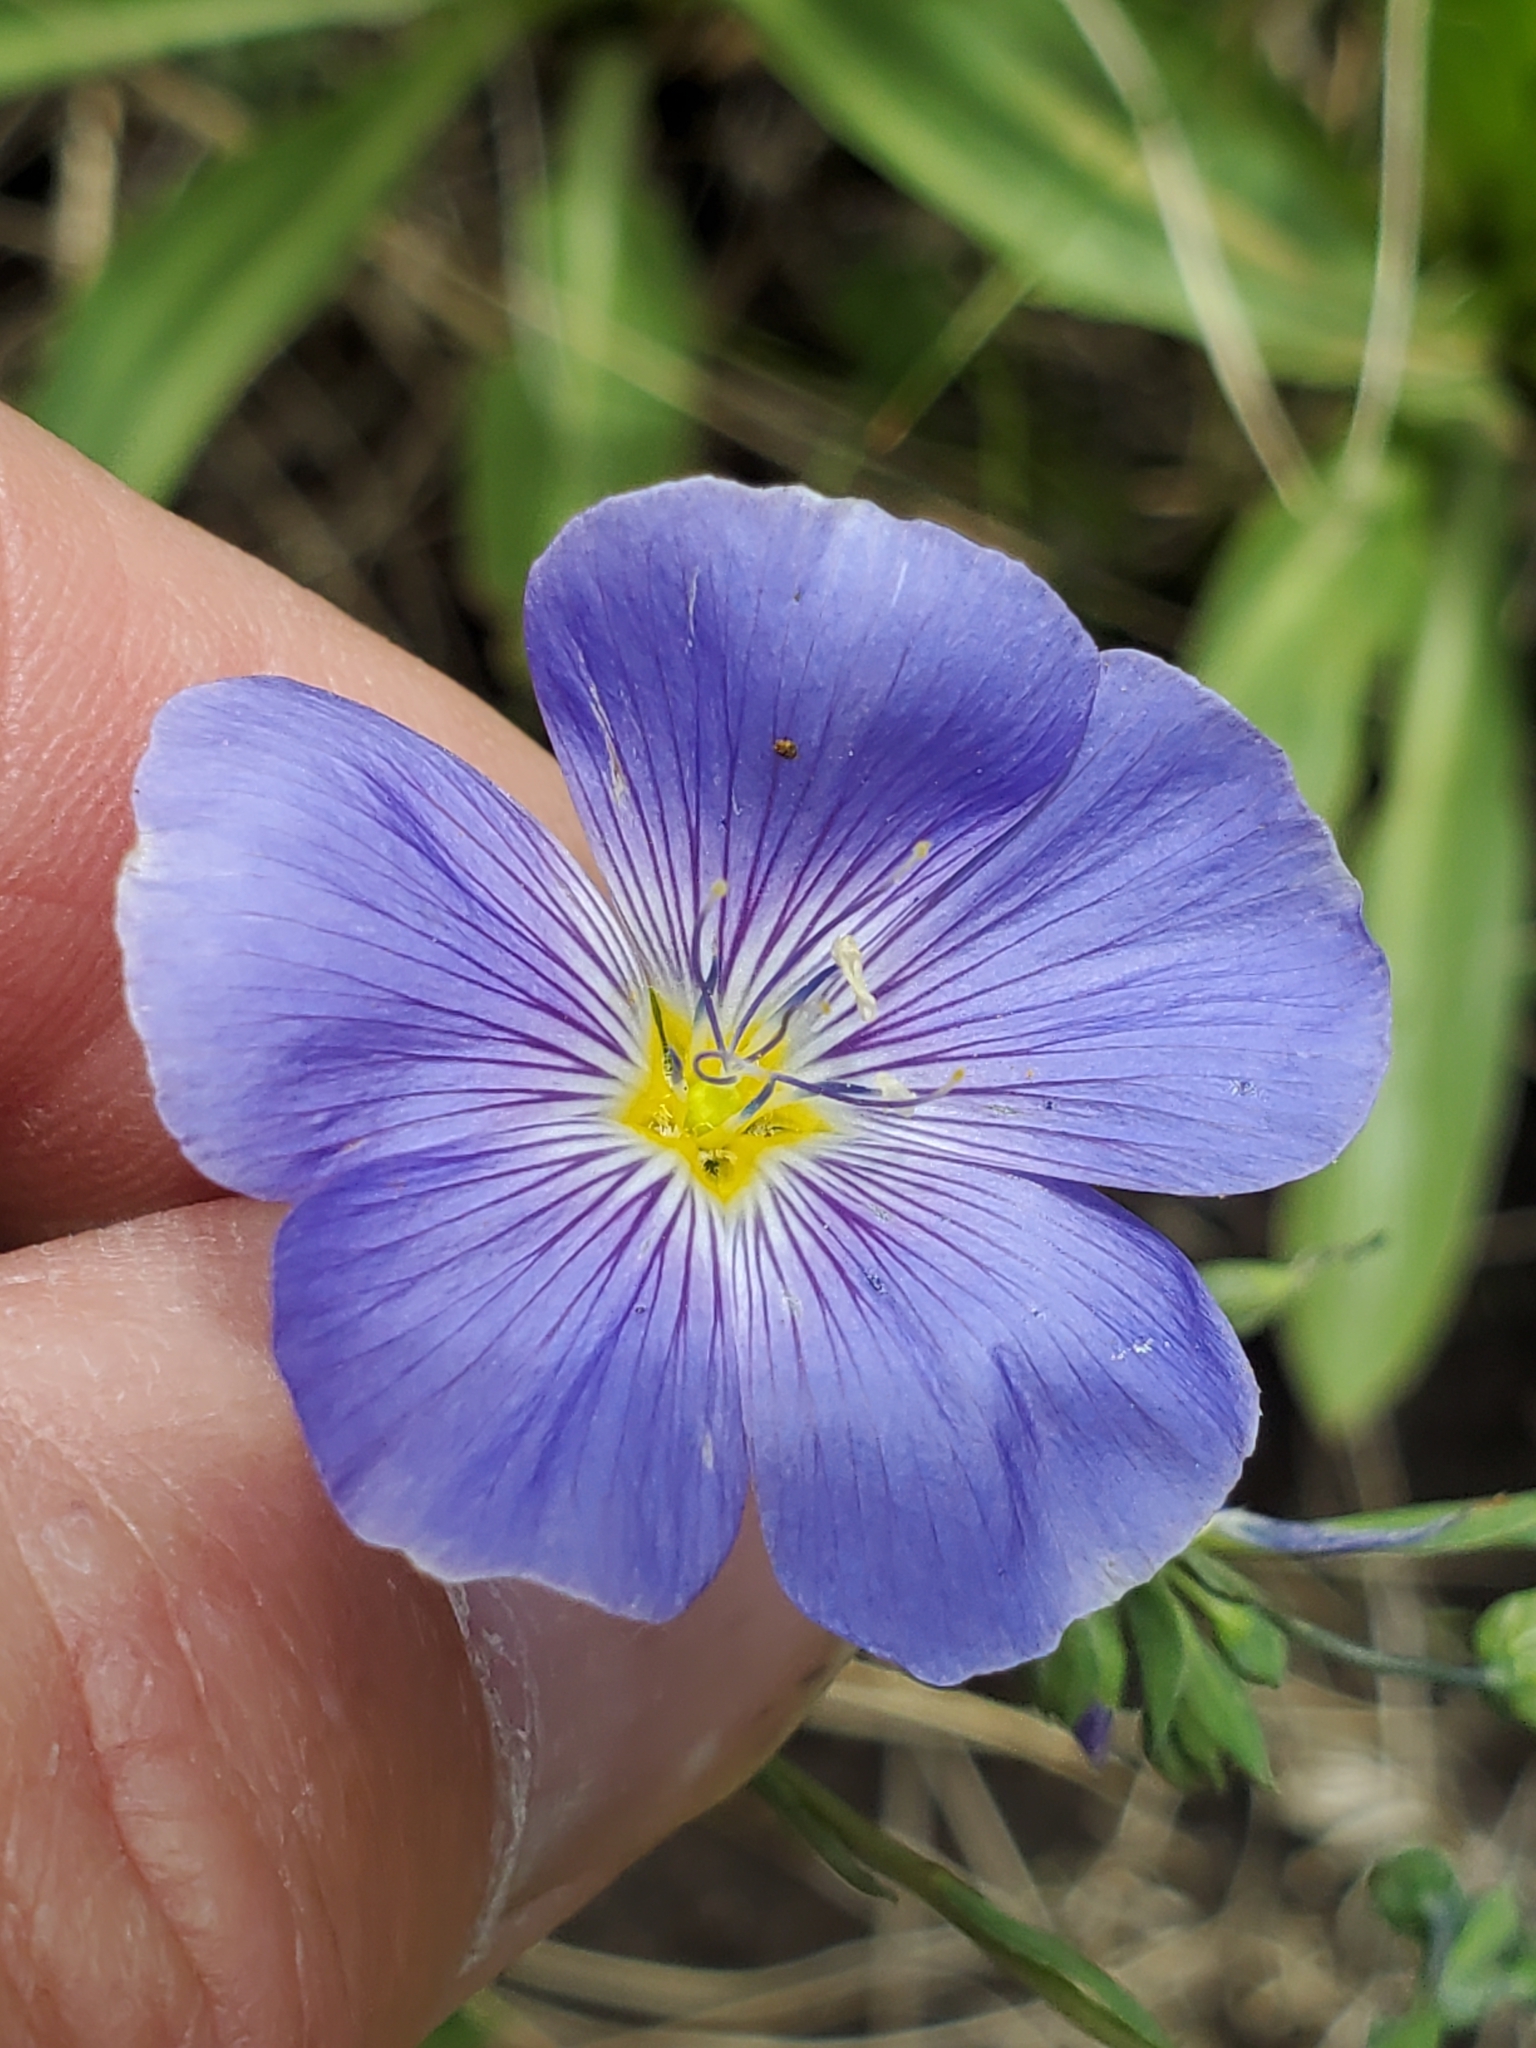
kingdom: Plantae
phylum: Tracheophyta
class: Magnoliopsida
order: Malpighiales
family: Linaceae
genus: Linum
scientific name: Linum lewisii
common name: Prairie flax
